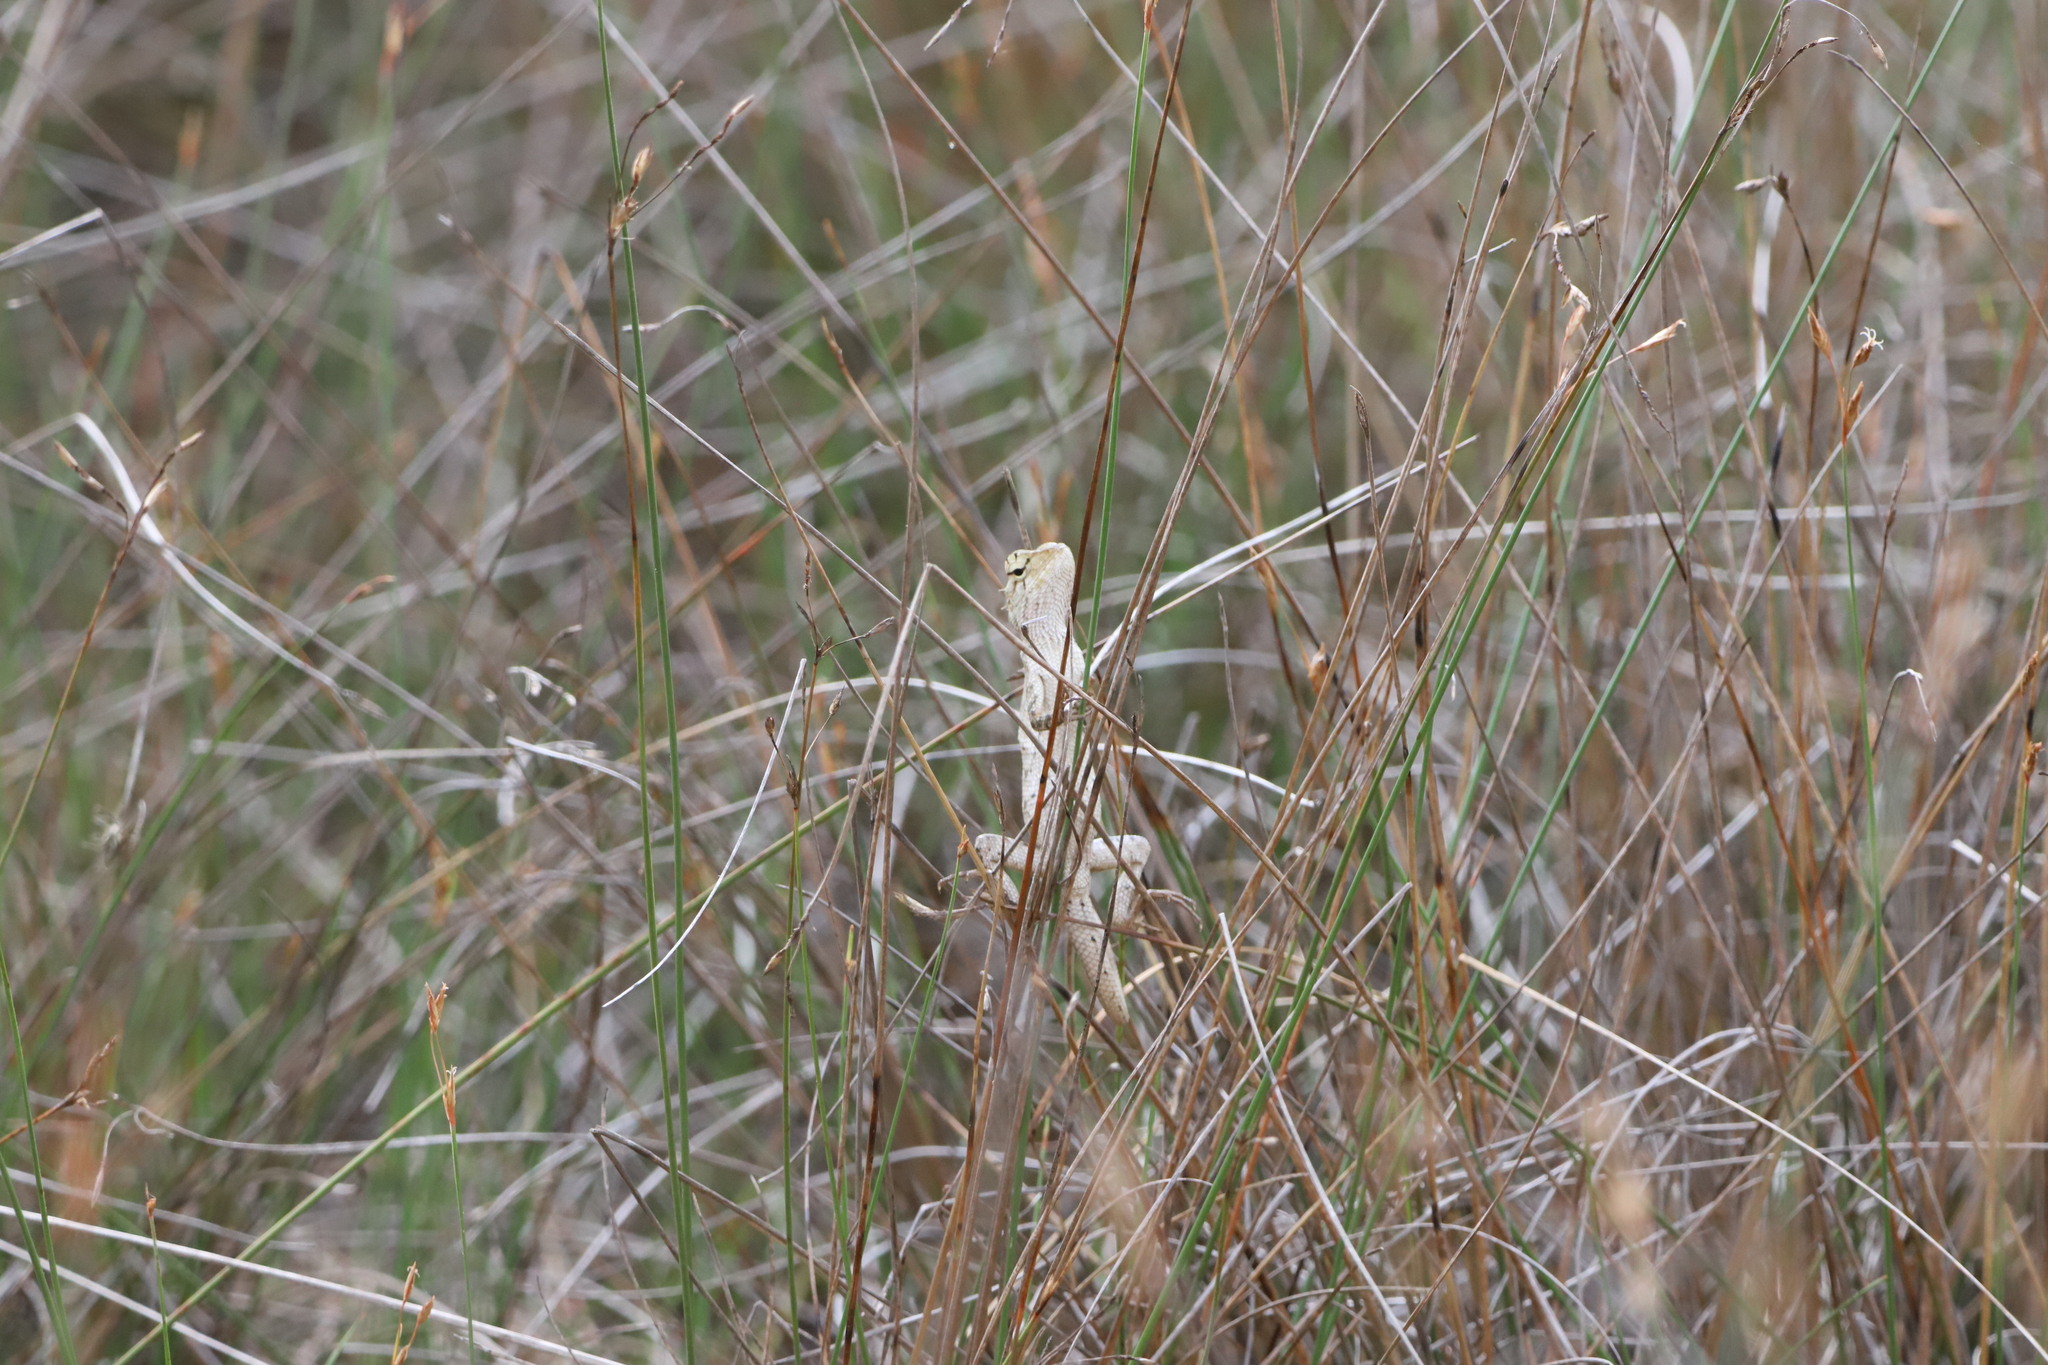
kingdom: Animalia
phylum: Chordata
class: Squamata
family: Agamidae
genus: Calotes
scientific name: Calotes versicolor
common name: Oriental garden lizard
